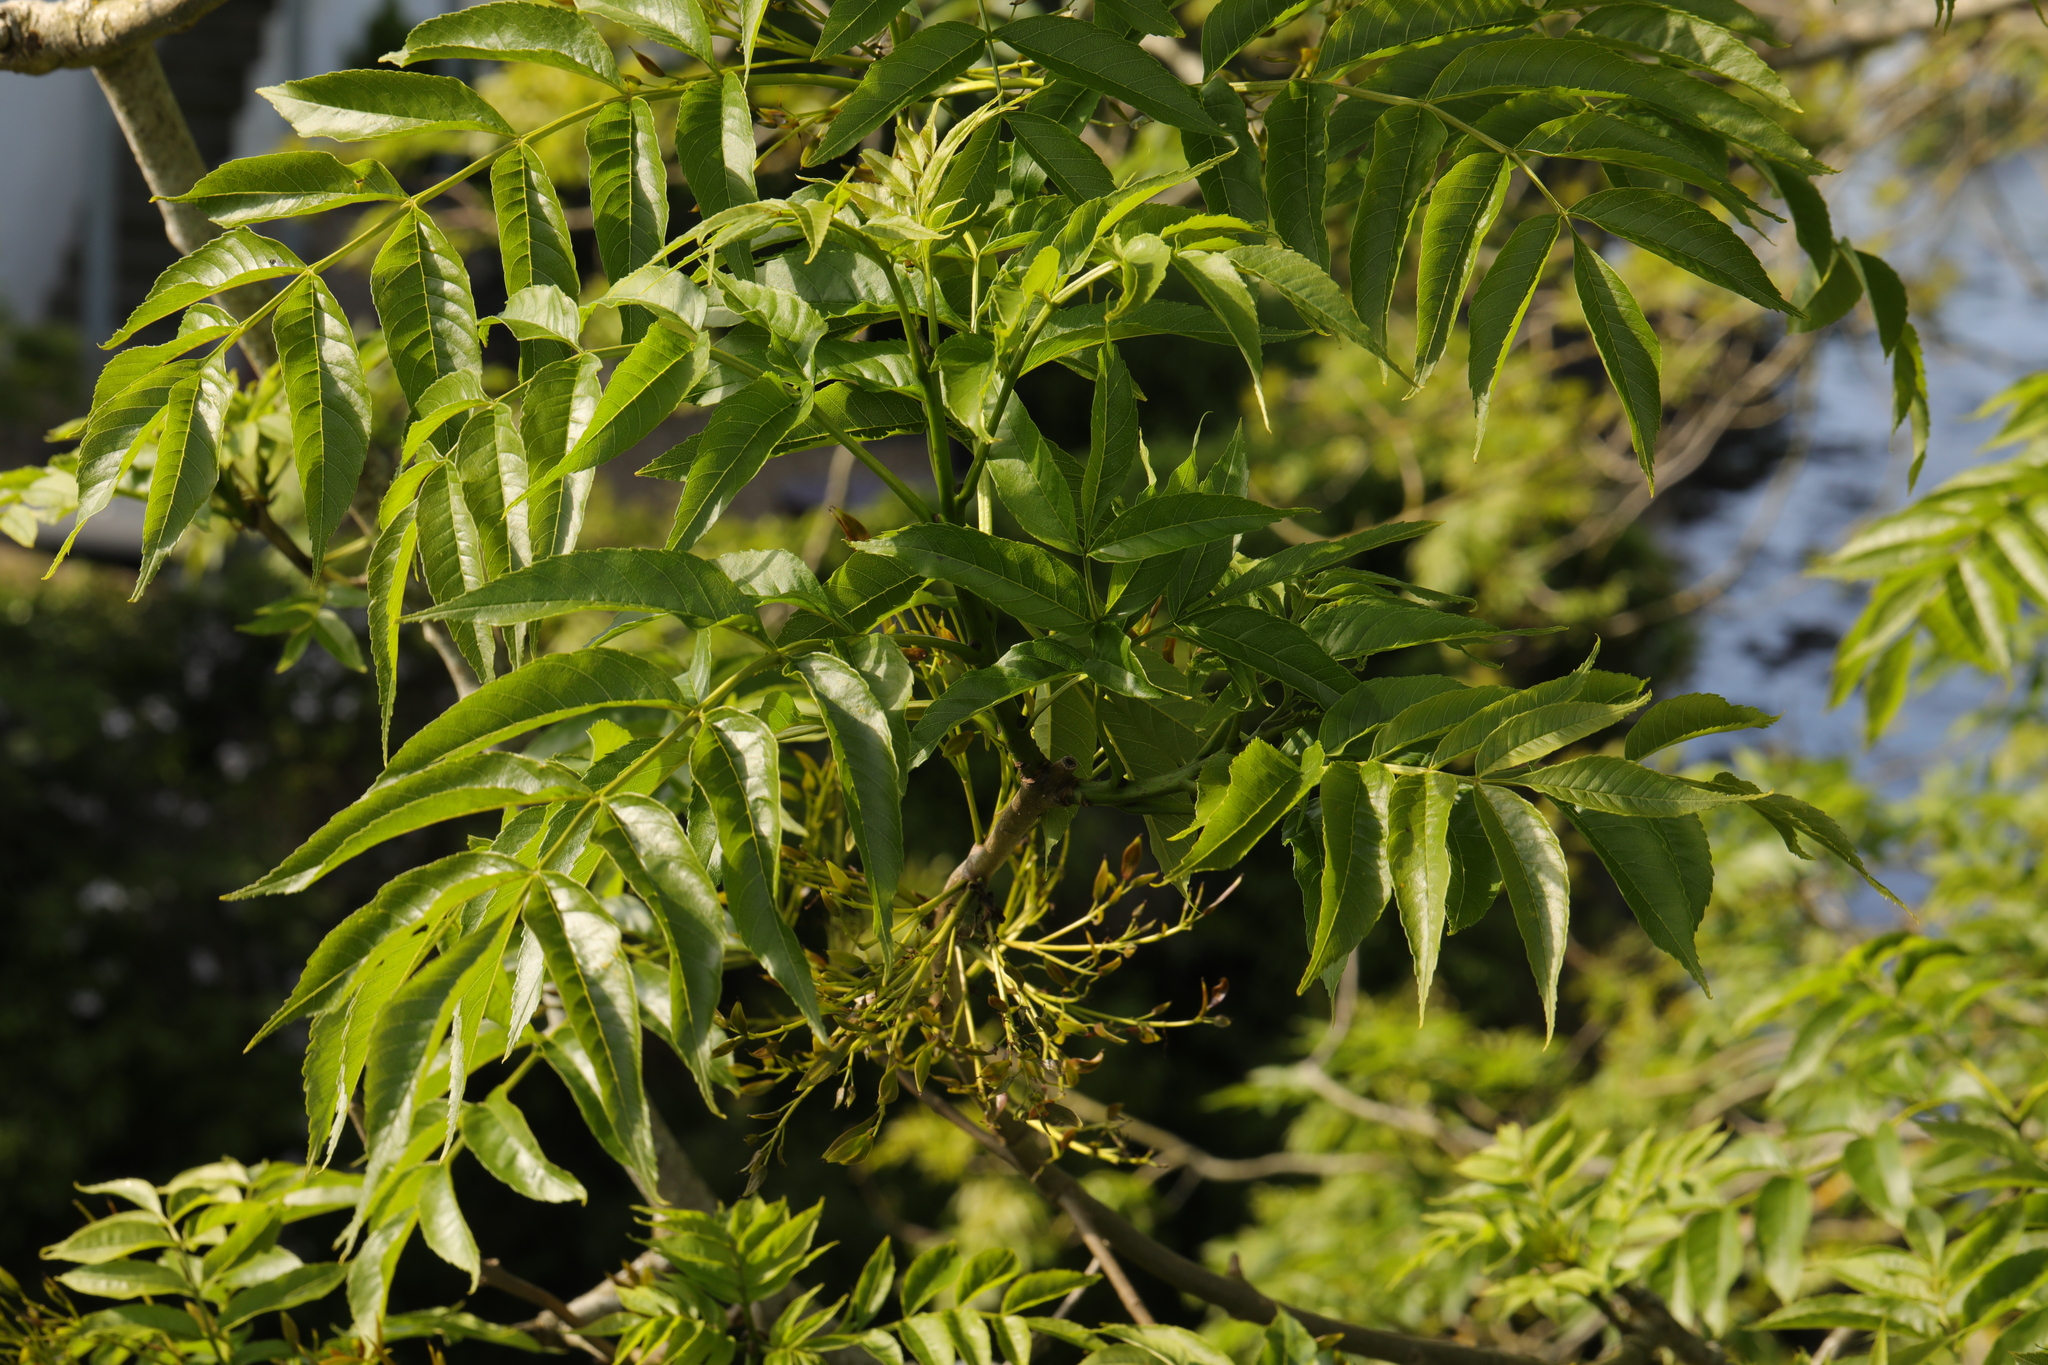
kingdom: Plantae
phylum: Tracheophyta
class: Magnoliopsida
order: Lamiales
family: Oleaceae
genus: Fraxinus
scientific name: Fraxinus excelsior
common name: European ash
